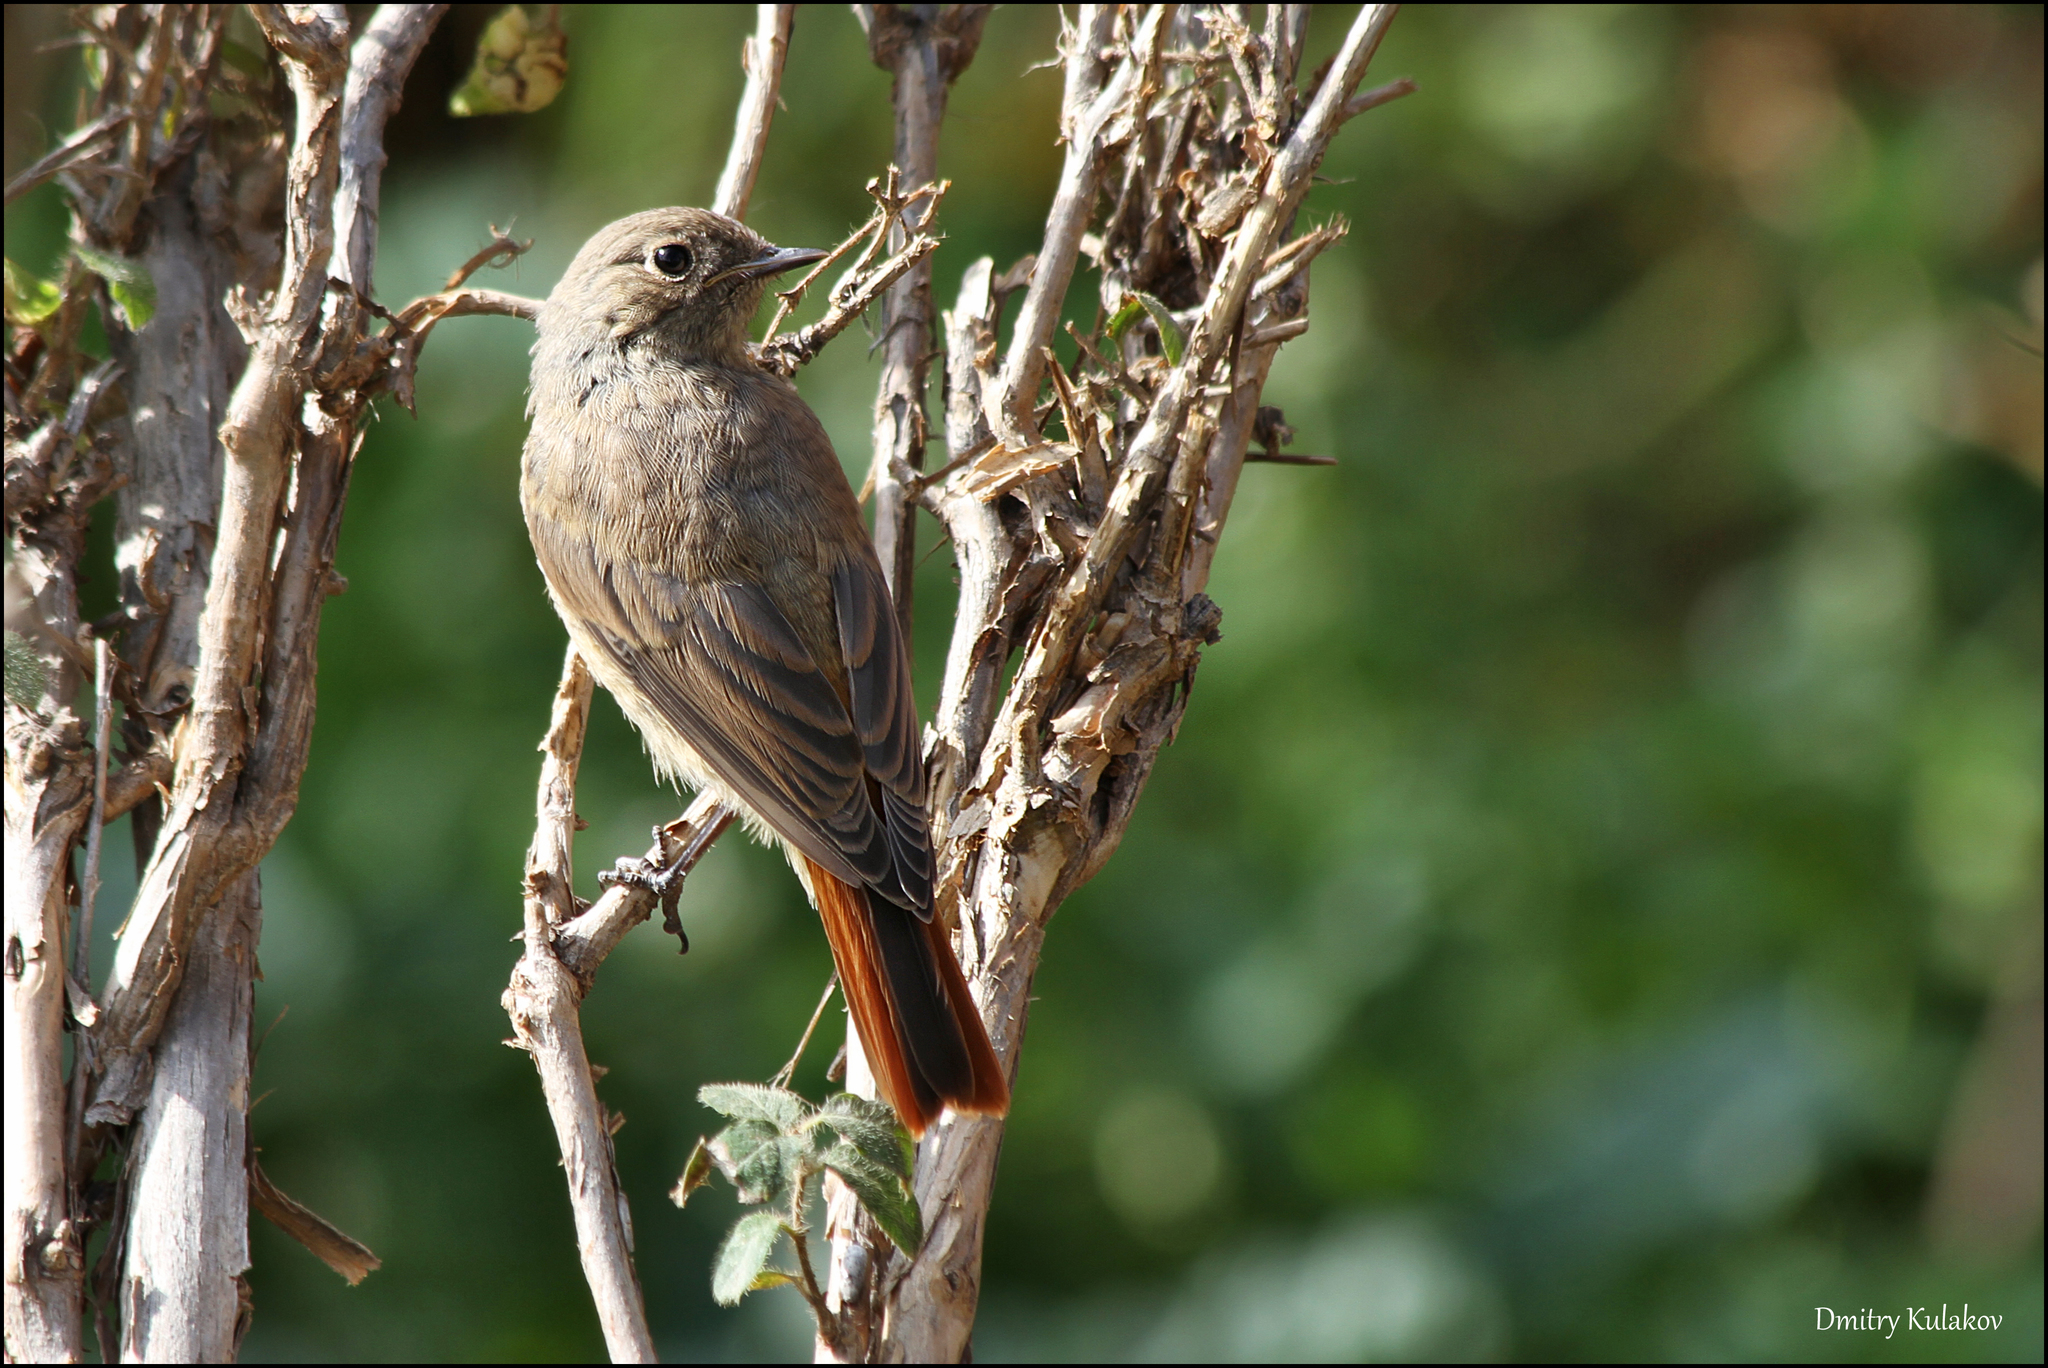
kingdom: Animalia
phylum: Chordata
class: Aves
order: Passeriformes
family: Muscicapidae
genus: Phoenicurus
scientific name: Phoenicurus ochruros
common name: Black redstart
